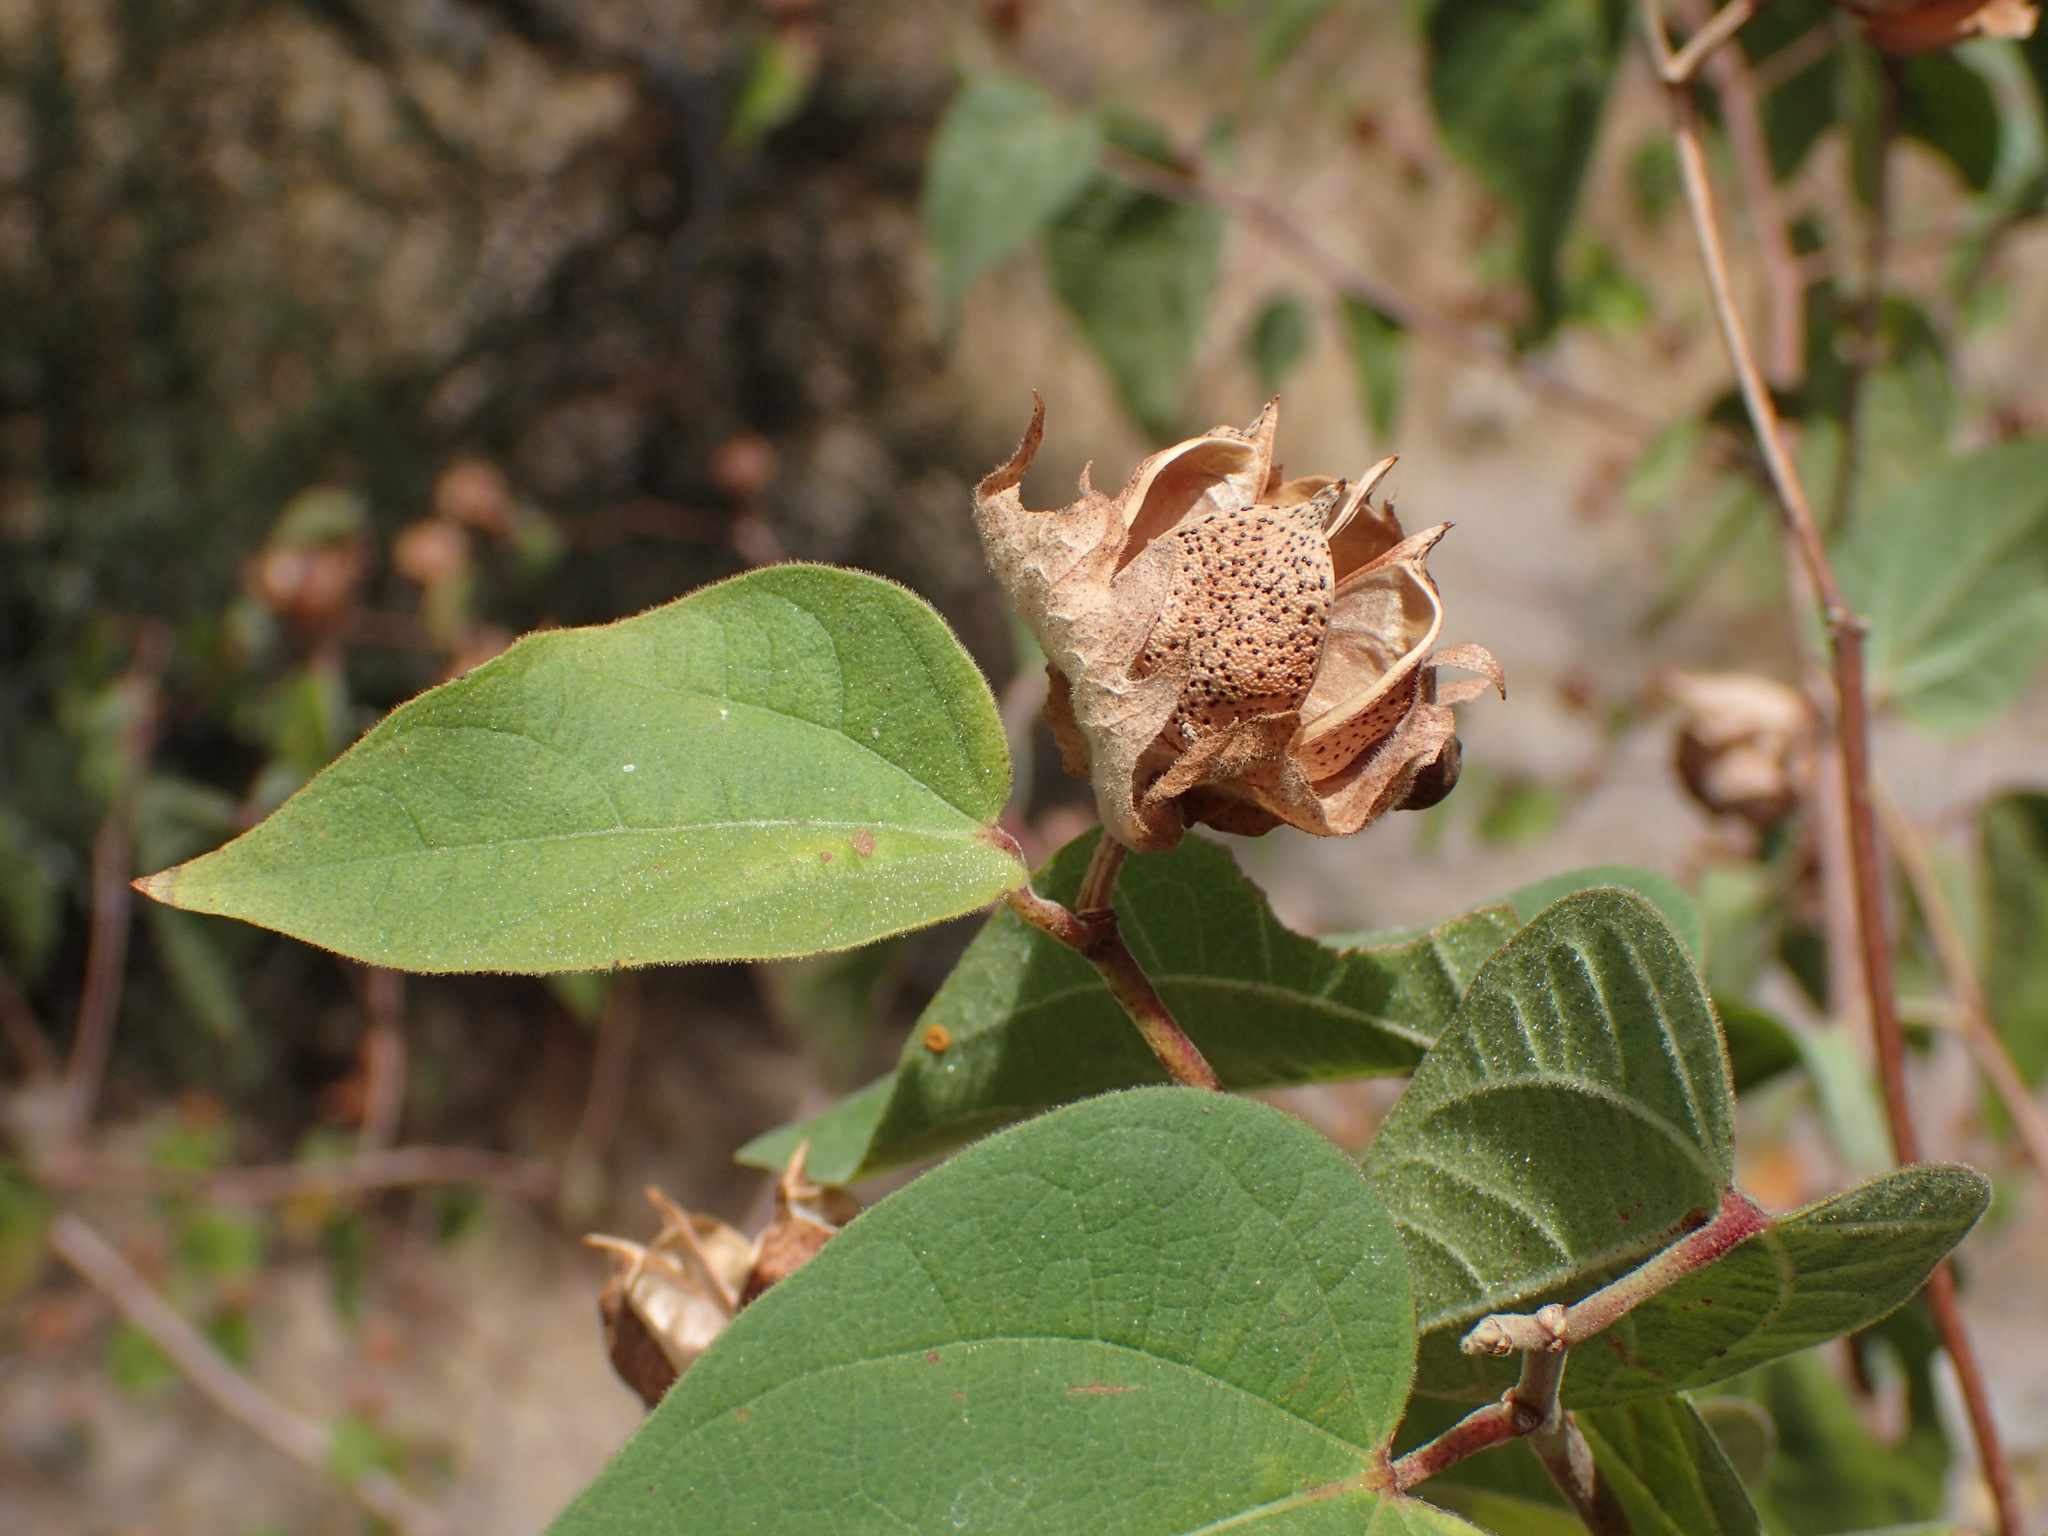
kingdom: Plantae
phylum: Tracheophyta
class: Magnoliopsida
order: Malvales
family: Malvaceae
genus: Gossypium
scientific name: Gossypium klotzschianum
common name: Galapagos cotton
